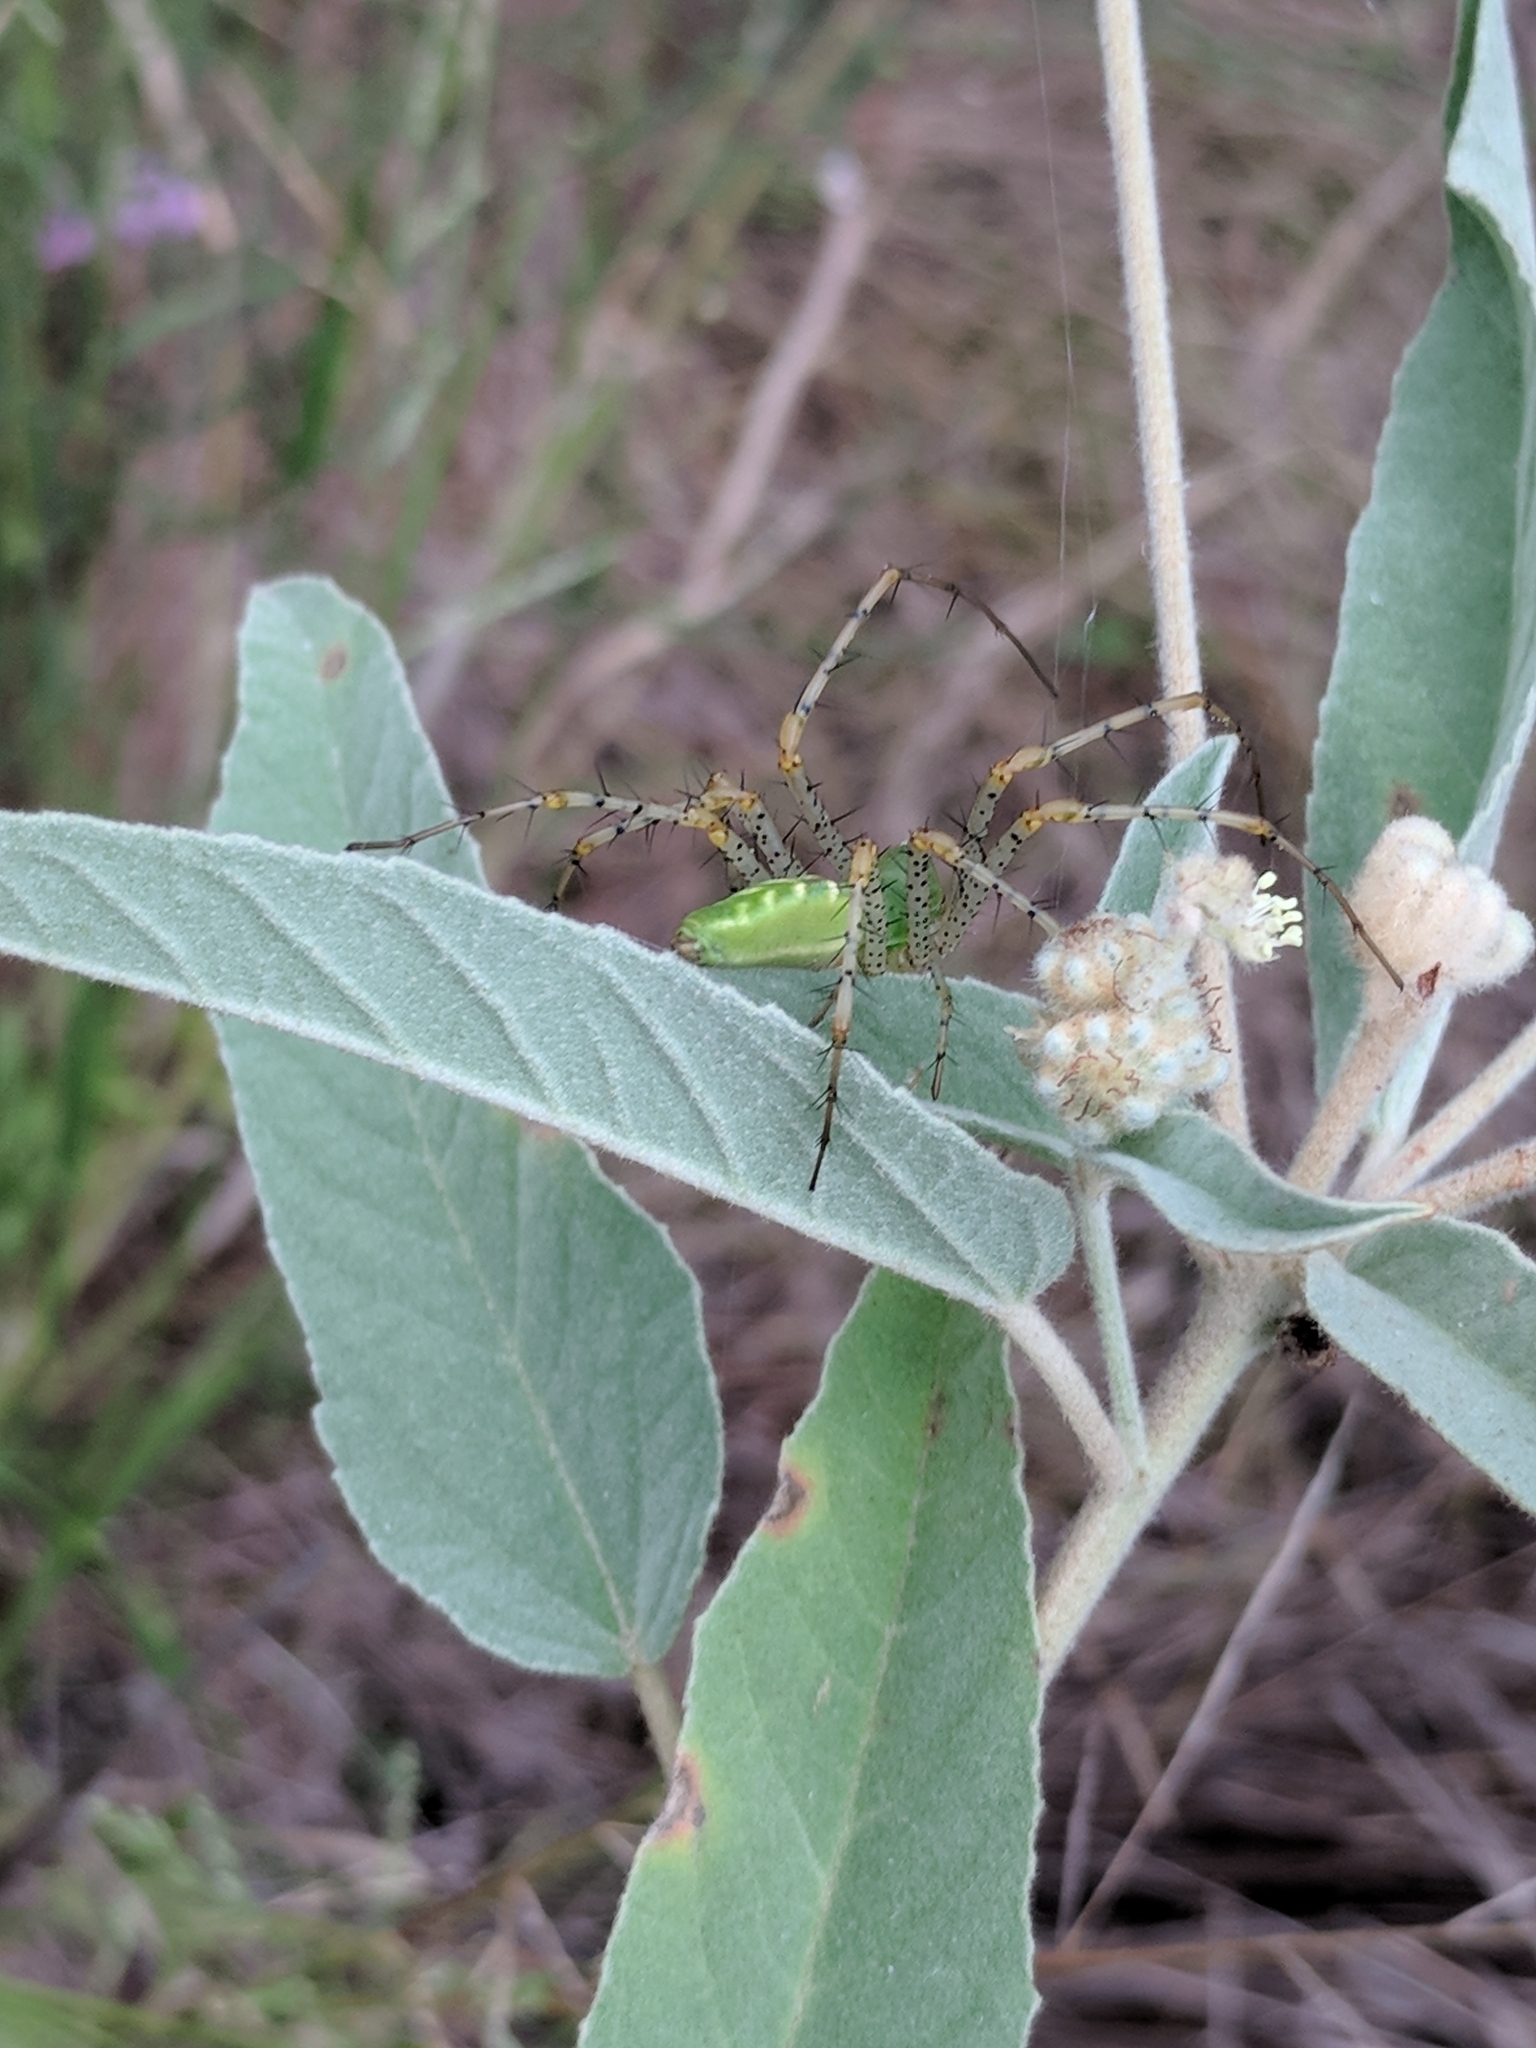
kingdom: Animalia
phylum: Arthropoda
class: Arachnida
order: Araneae
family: Oxyopidae
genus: Peucetia
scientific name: Peucetia viridans
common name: Lynx spiders
